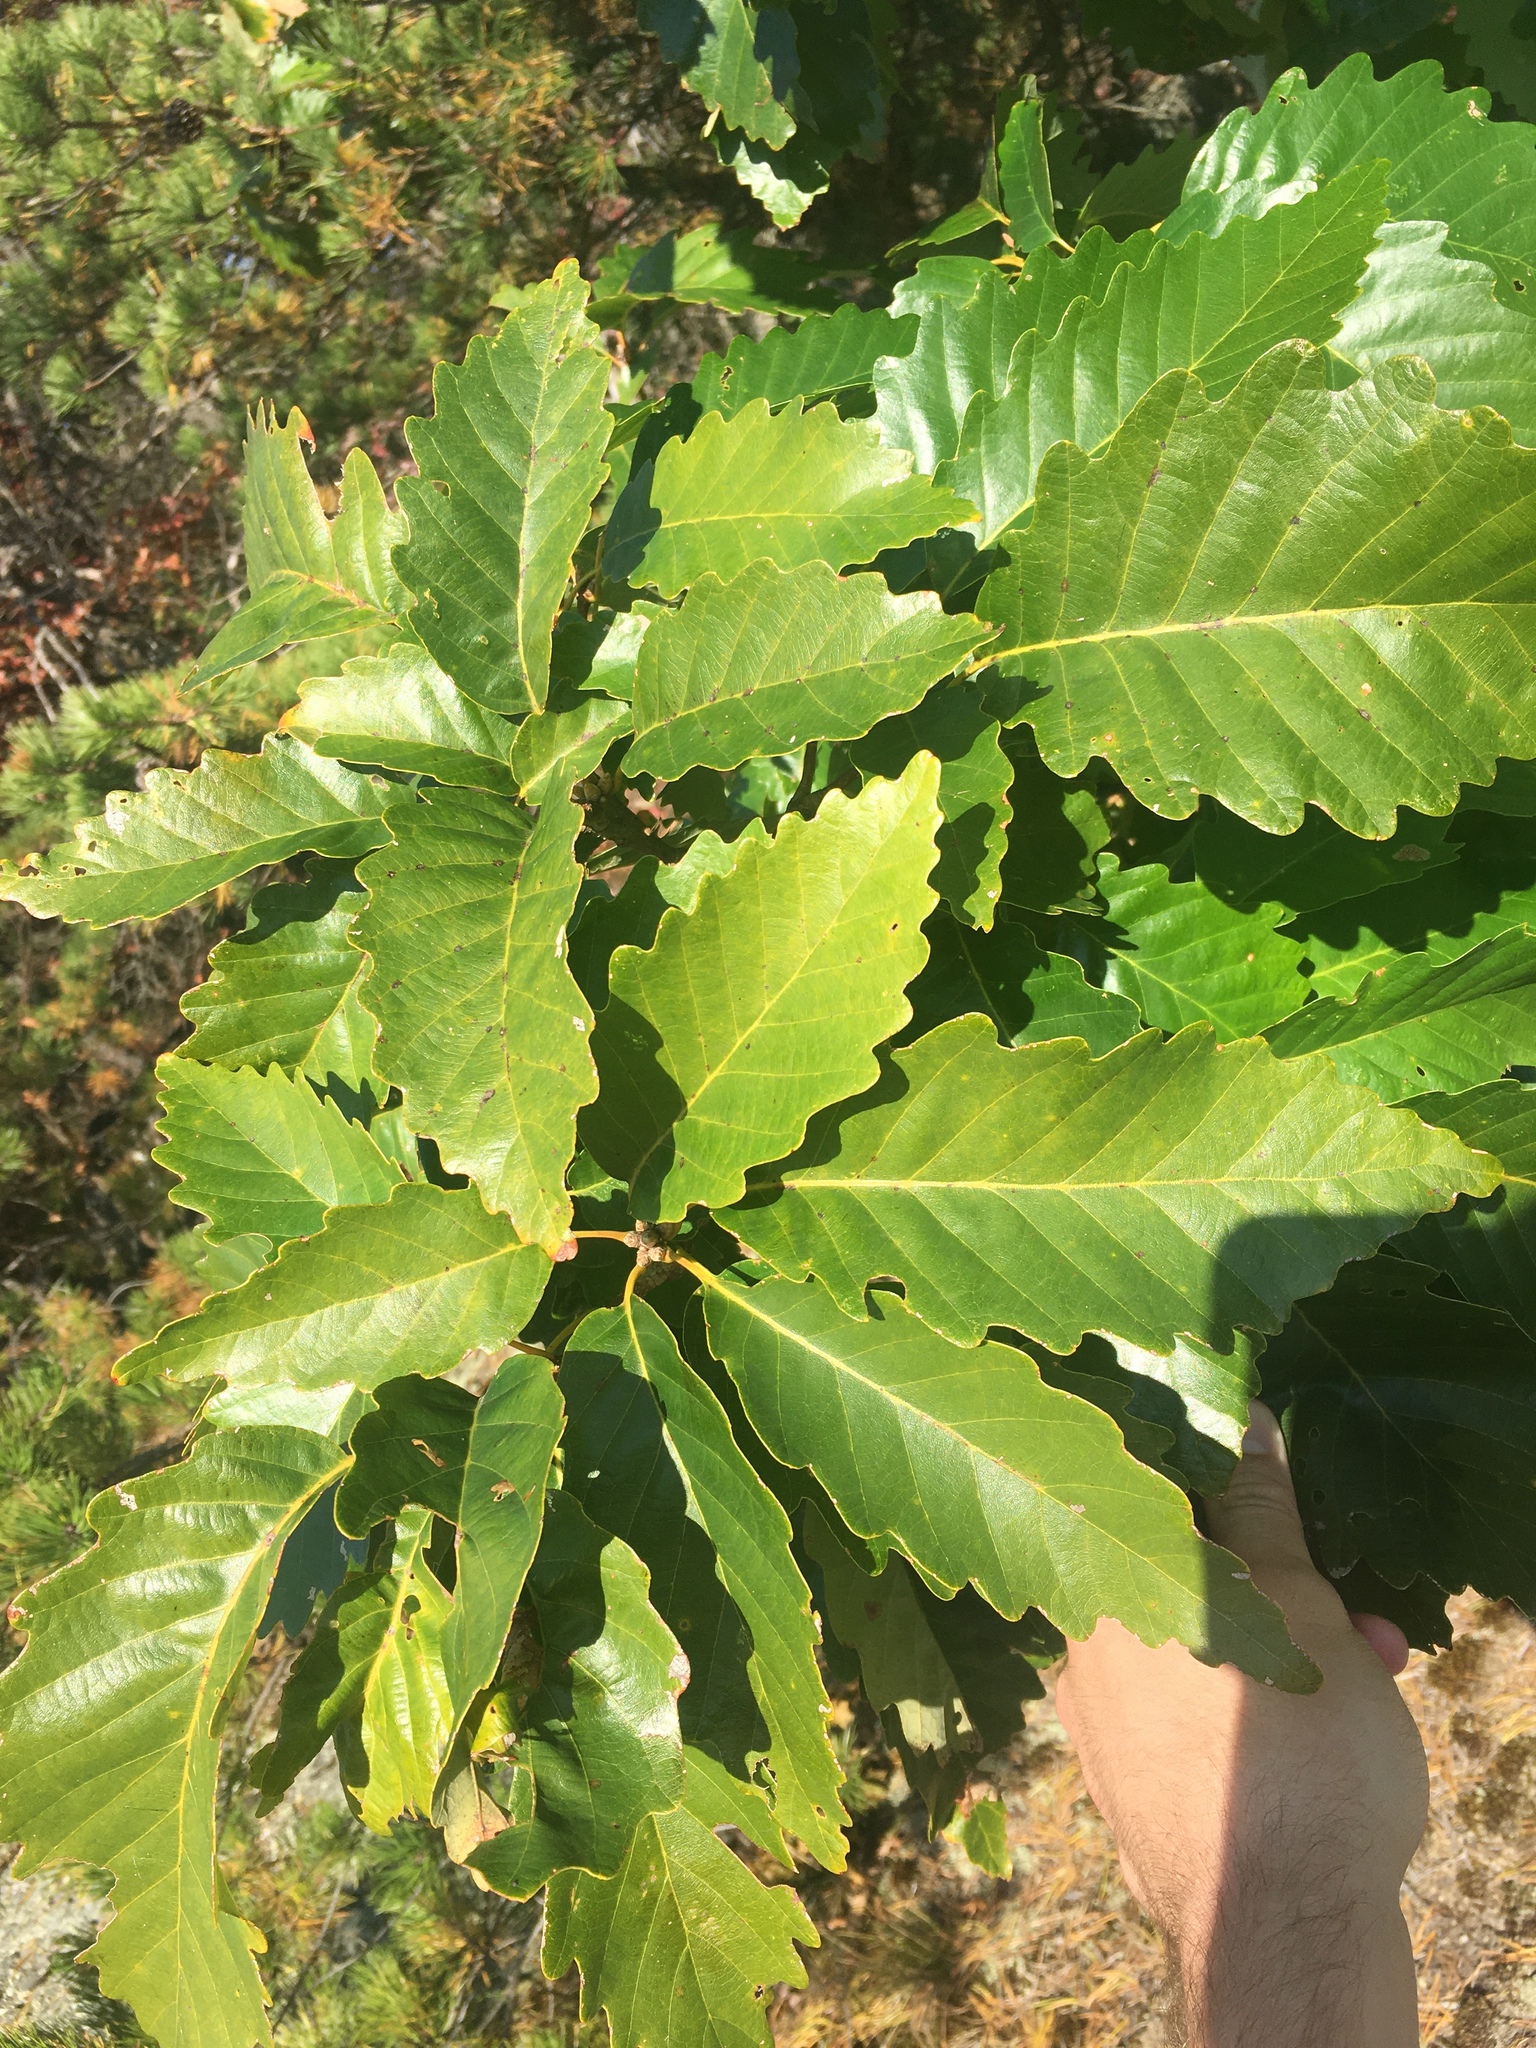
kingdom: Plantae
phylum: Tracheophyta
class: Magnoliopsida
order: Fagales
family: Fagaceae
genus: Quercus
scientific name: Quercus montana
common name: Chestnut oak
